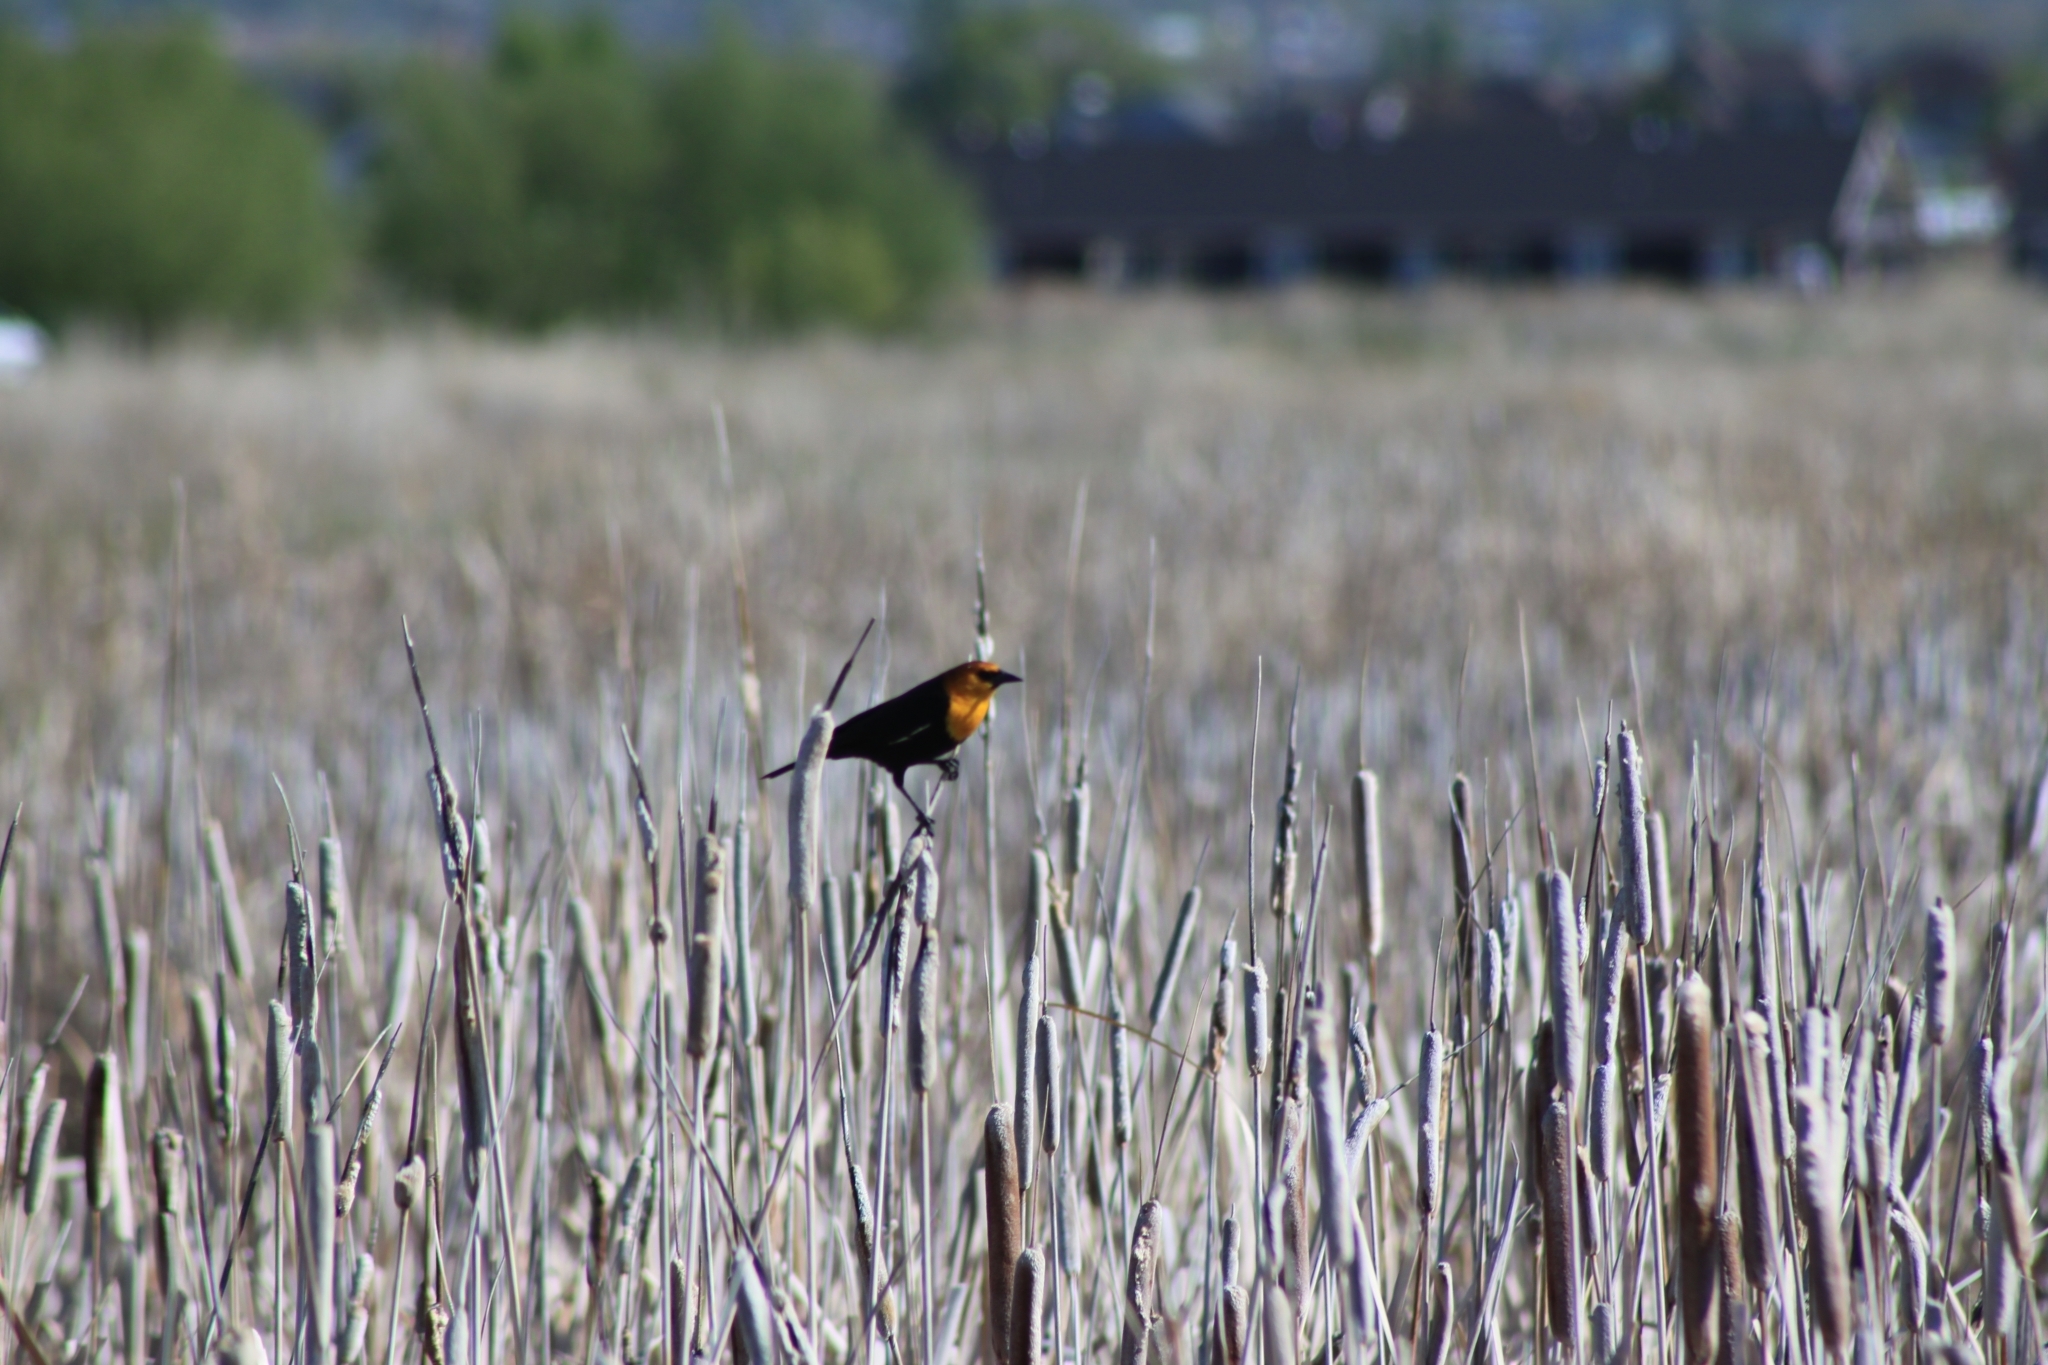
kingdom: Animalia
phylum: Chordata
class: Aves
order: Passeriformes
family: Icteridae
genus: Xanthocephalus
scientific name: Xanthocephalus xanthocephalus
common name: Yellow-headed blackbird
